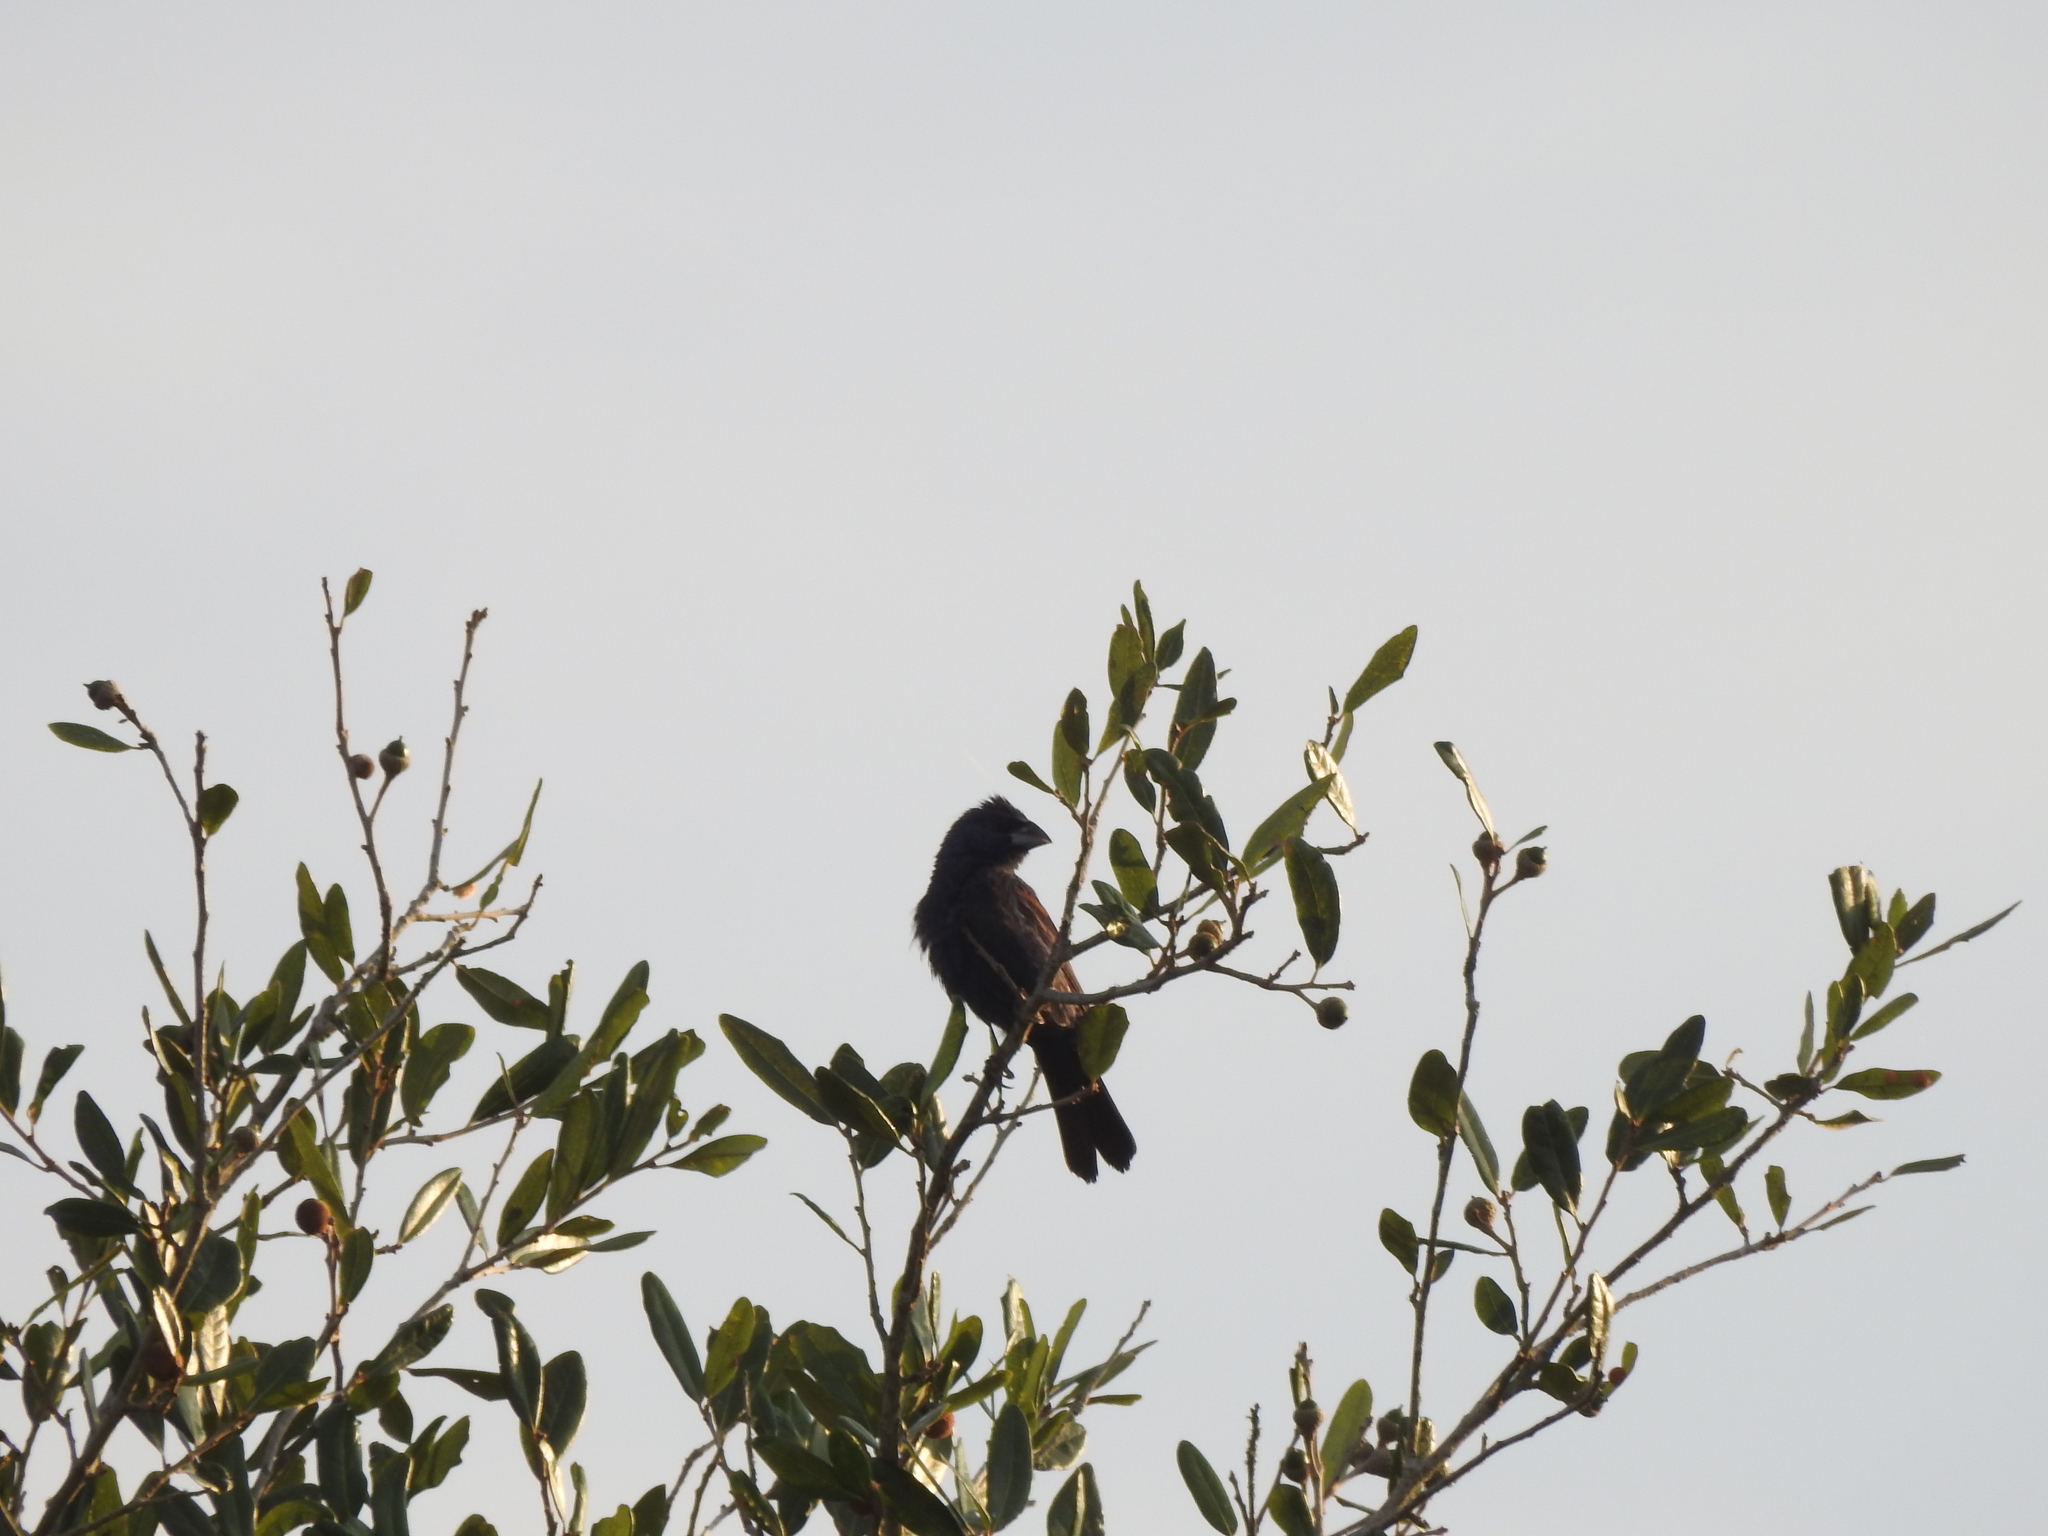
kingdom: Animalia
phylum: Chordata
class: Aves
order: Passeriformes
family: Cardinalidae
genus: Passerina
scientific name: Passerina caerulea
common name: Blue grosbeak
